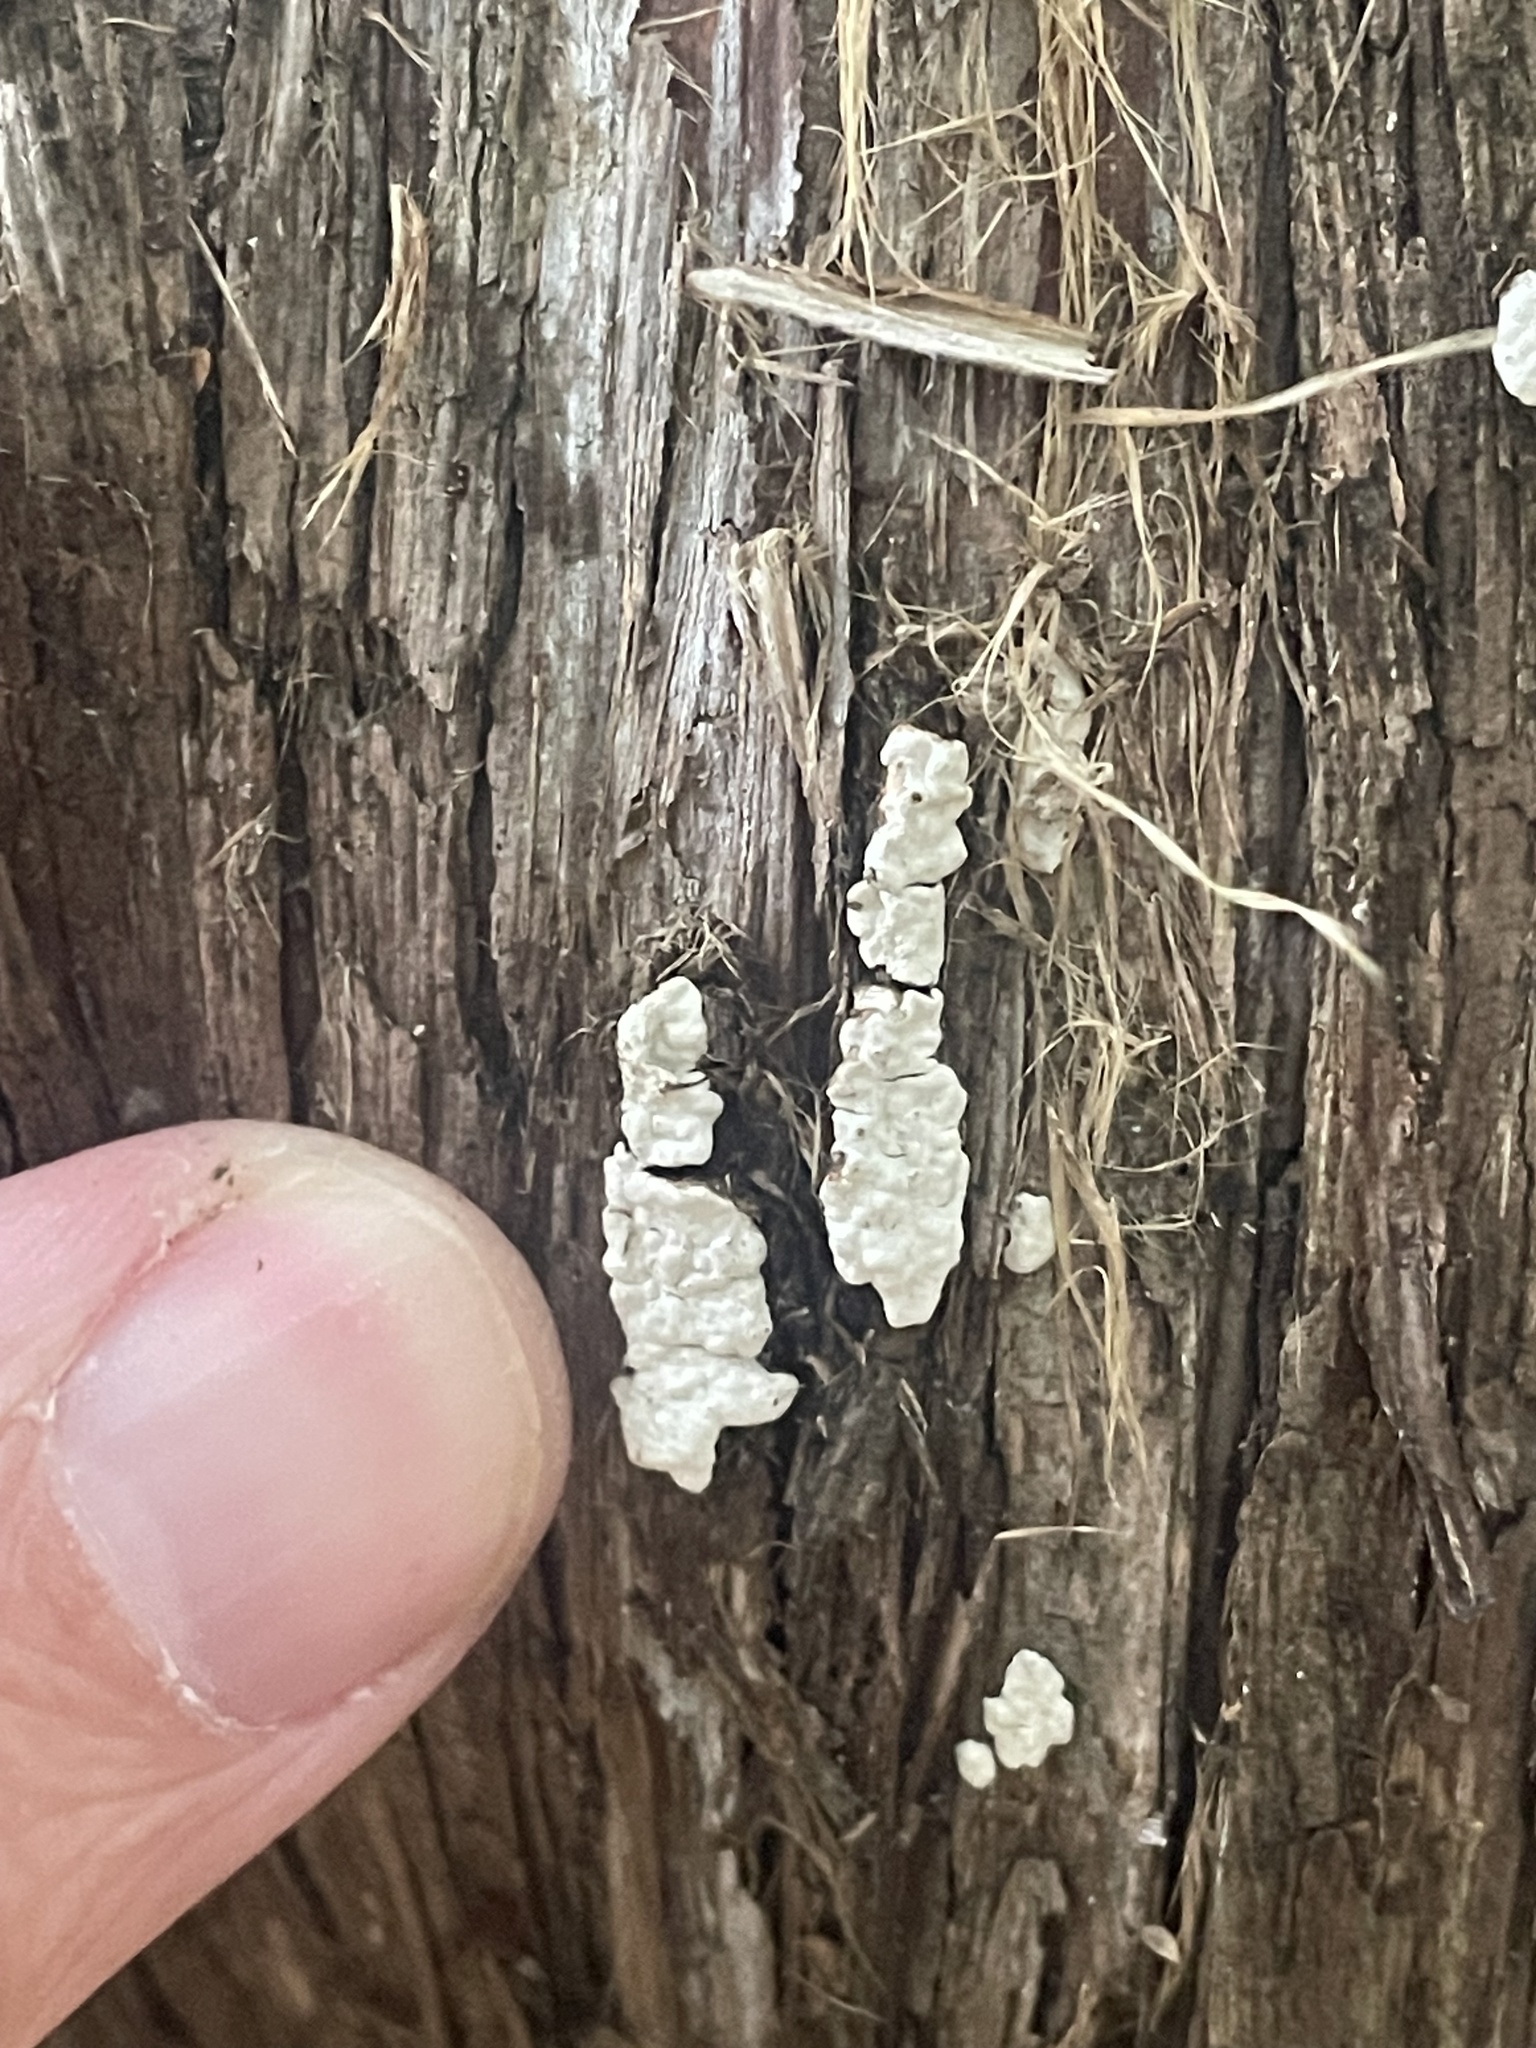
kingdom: Fungi
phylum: Basidiomycota
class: Agaricomycetes
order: Agaricales
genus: Dendrothele
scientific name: Dendrothele nivosa
